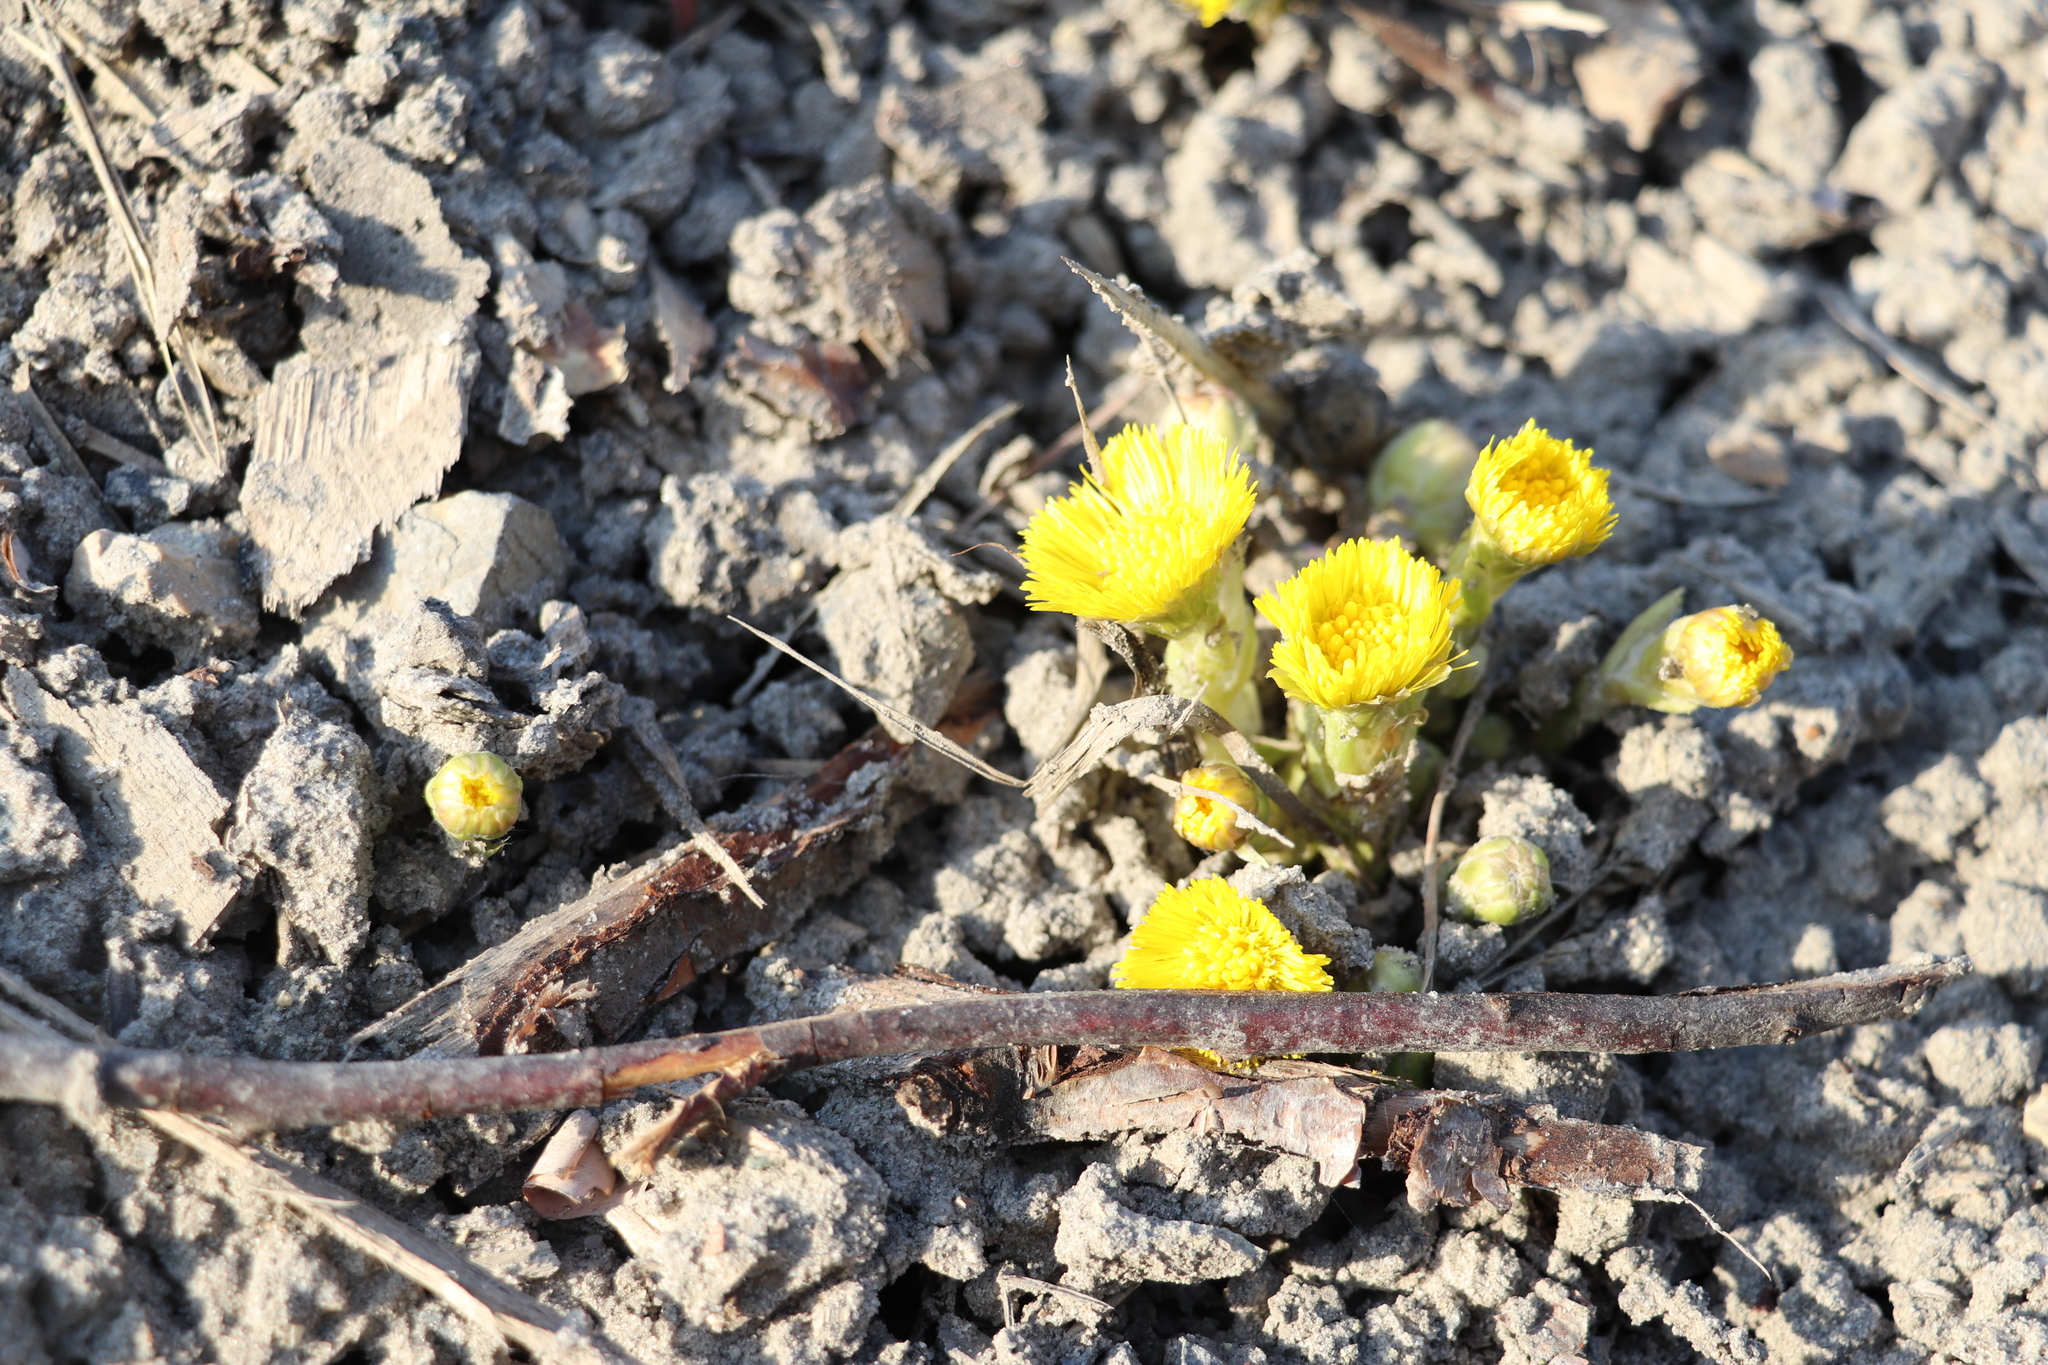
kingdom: Plantae
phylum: Tracheophyta
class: Magnoliopsida
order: Asterales
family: Asteraceae
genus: Tussilago
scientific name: Tussilago farfara
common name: Coltsfoot
